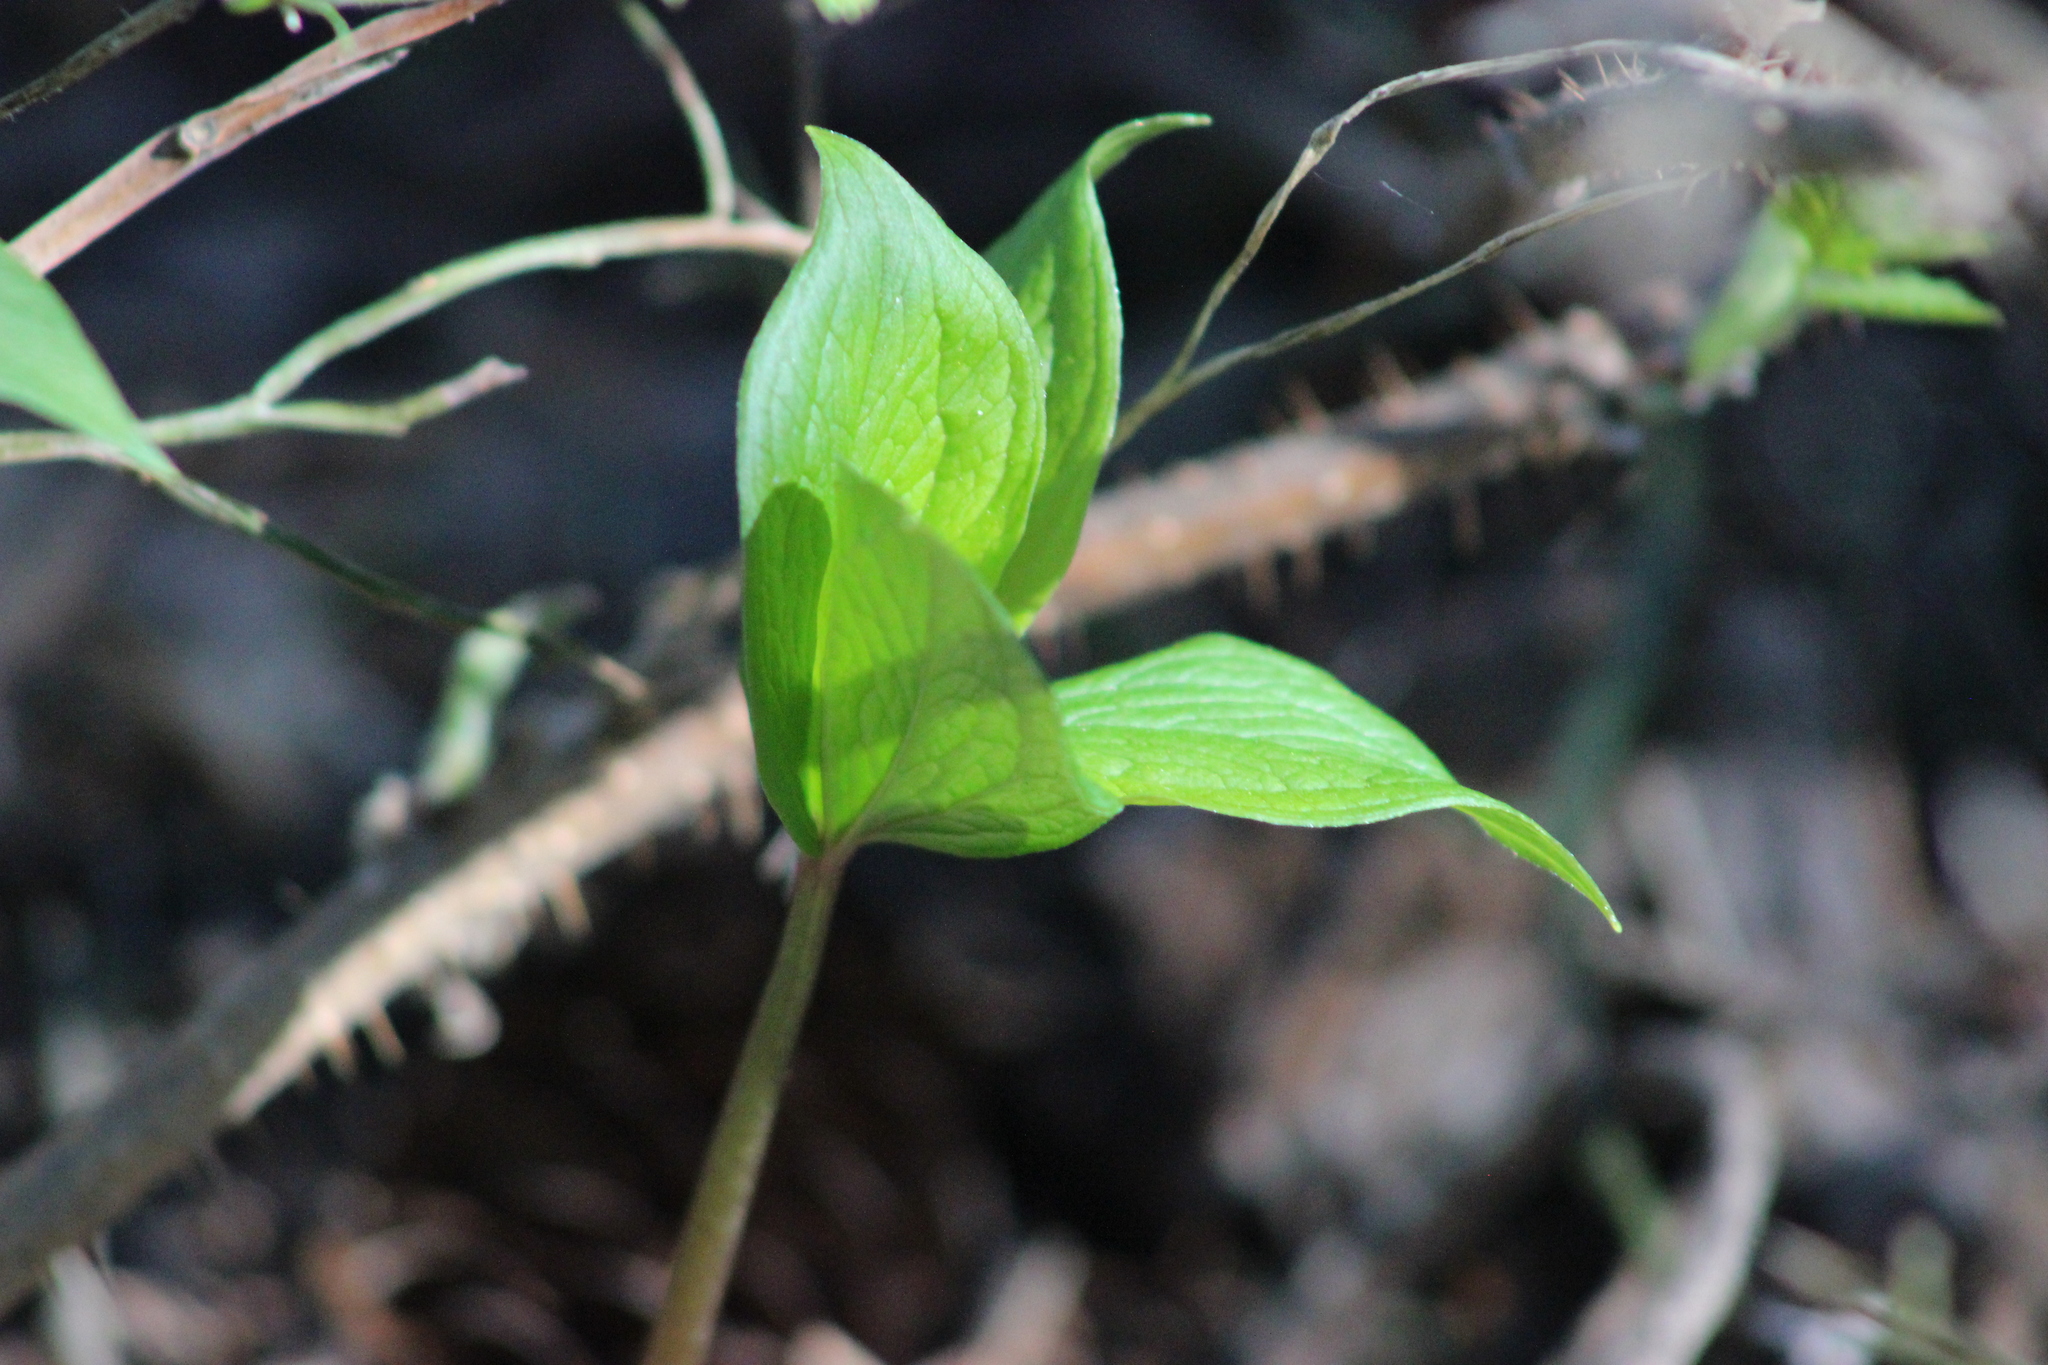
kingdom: Plantae
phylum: Tracheophyta
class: Liliopsida
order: Liliales
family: Melanthiaceae
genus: Paris
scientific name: Paris quadrifolia
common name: Herb-paris
